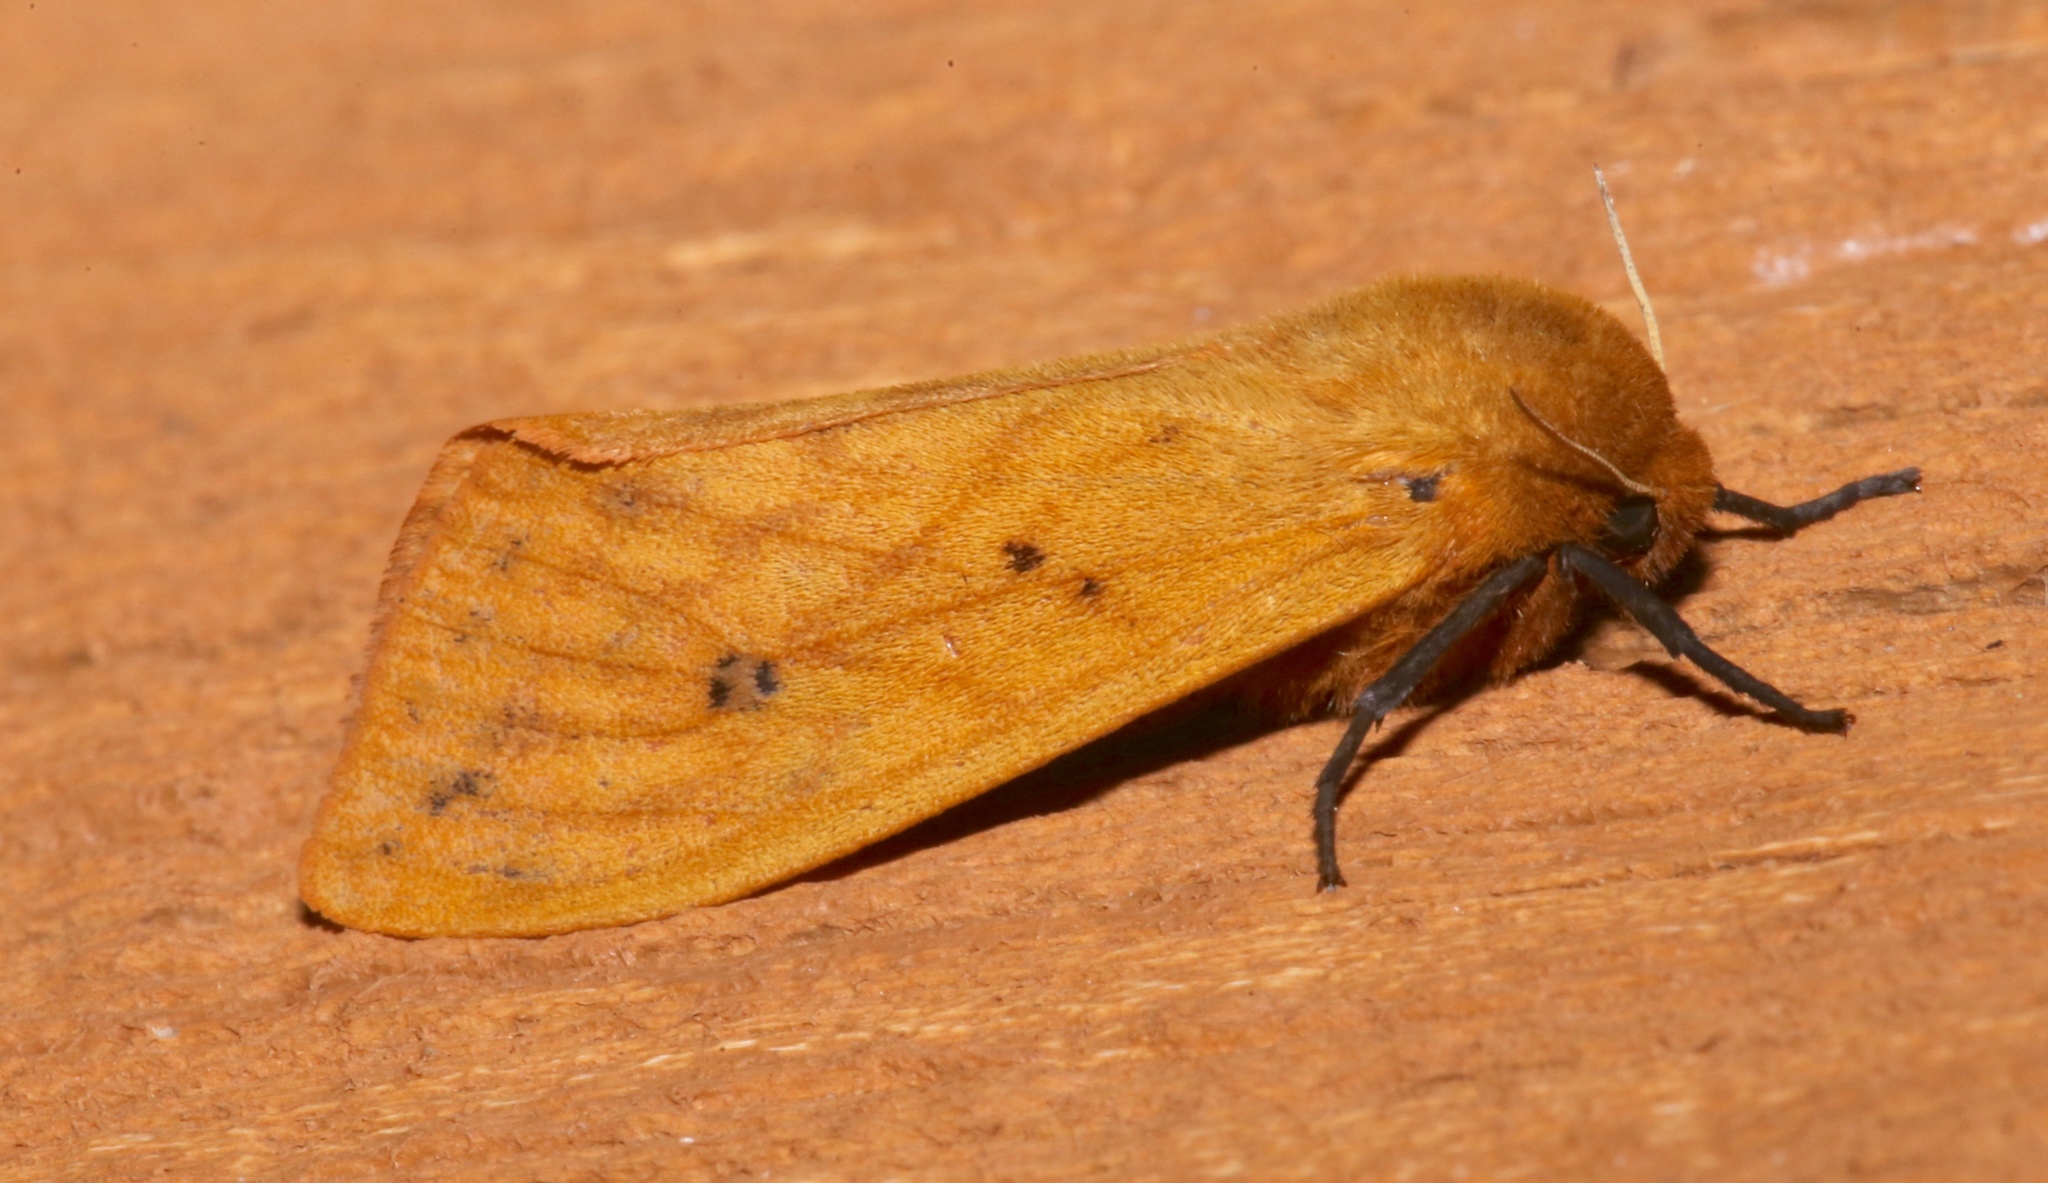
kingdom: Animalia
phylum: Arthropoda
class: Insecta
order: Lepidoptera
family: Erebidae
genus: Pyrrharctia
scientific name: Pyrrharctia isabella
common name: Isabella tiger moth
